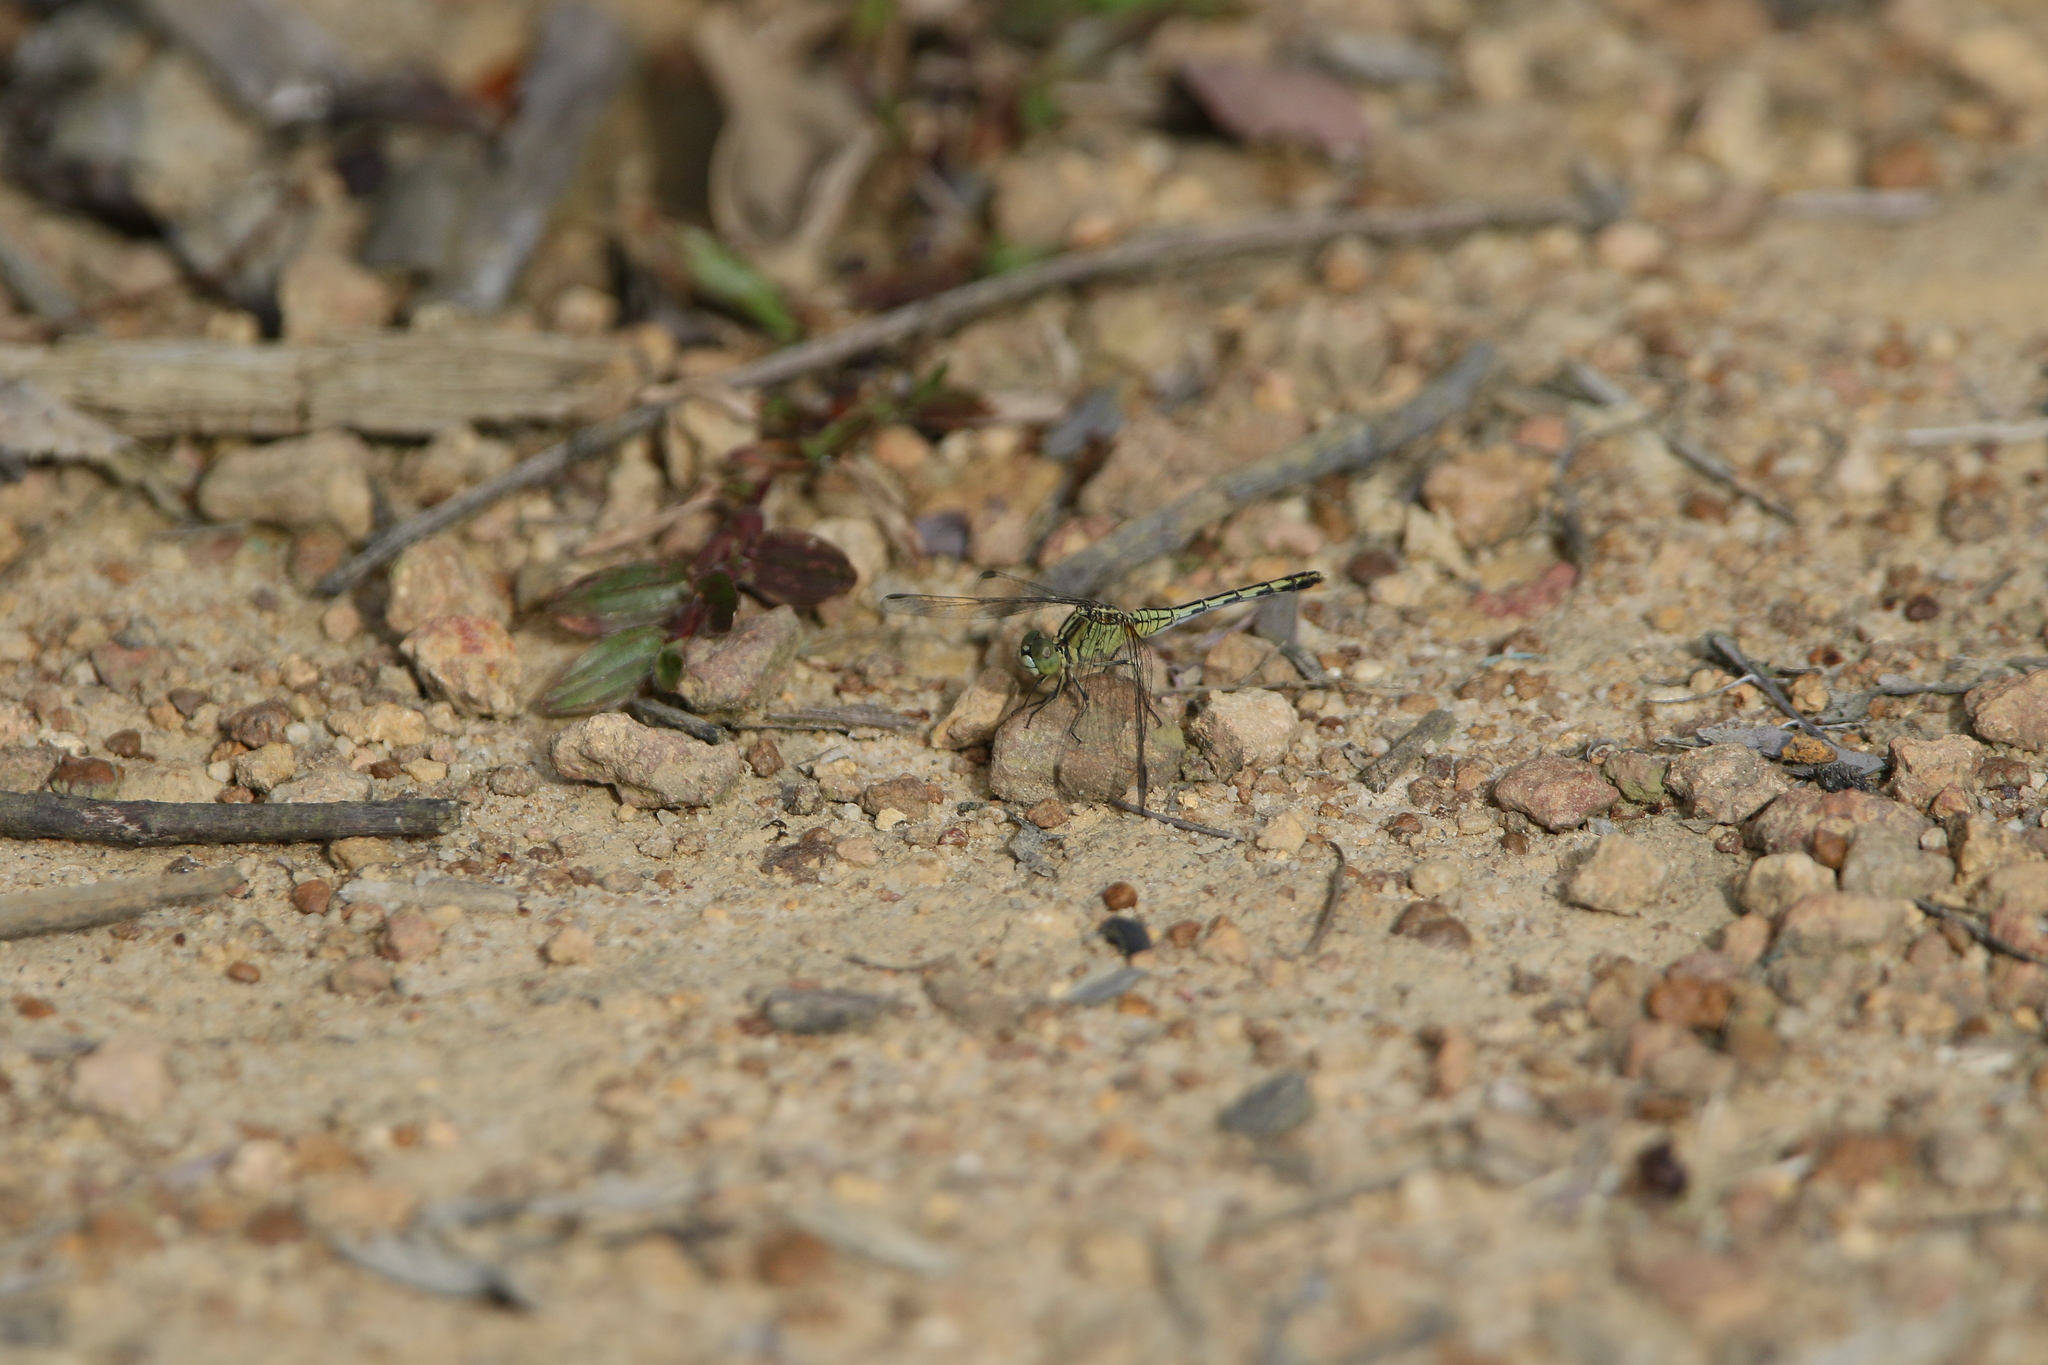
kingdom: Animalia
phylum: Arthropoda
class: Insecta
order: Odonata
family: Libellulidae
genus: Diplacodes
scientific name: Diplacodes trivialis
